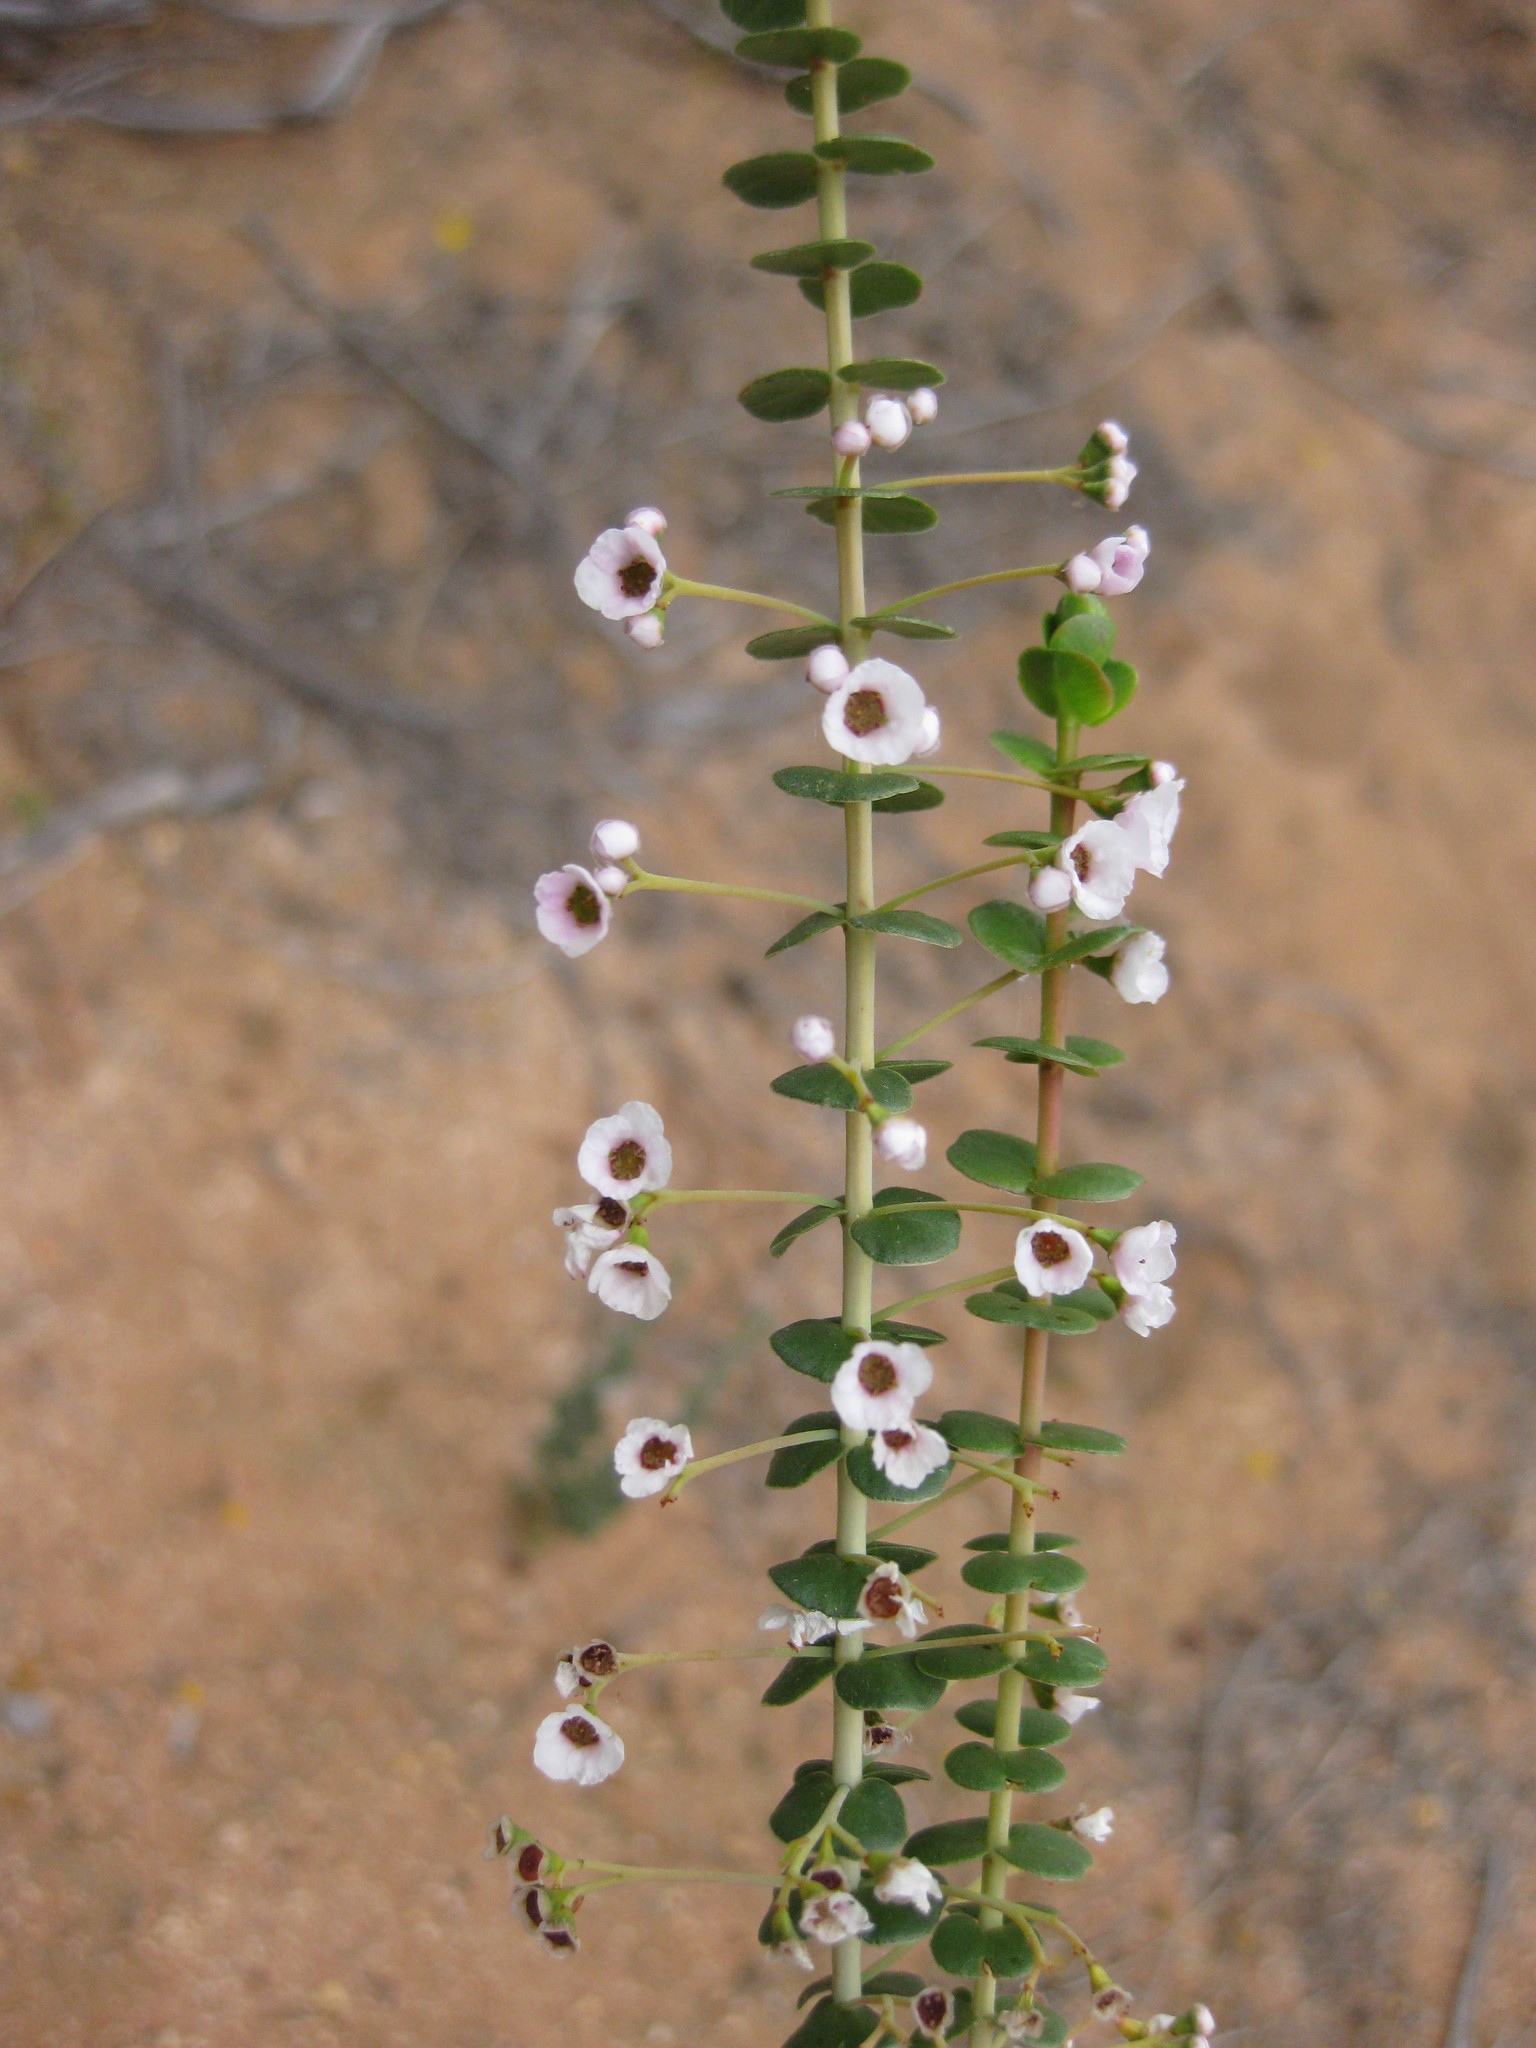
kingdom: Plantae
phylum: Tracheophyta
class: Magnoliopsida
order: Myrtales
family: Myrtaceae
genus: Scholtzia
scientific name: Scholtzia uberiflora
